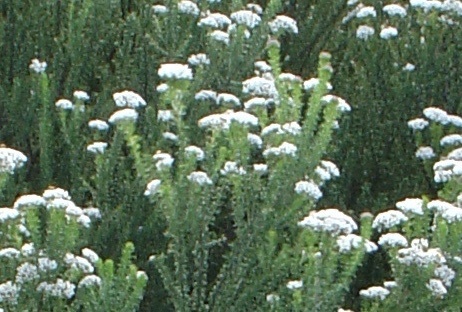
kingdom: Plantae
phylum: Tracheophyta
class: Magnoliopsida
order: Asterales
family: Asteraceae
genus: Metalasia
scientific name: Metalasia muricata
